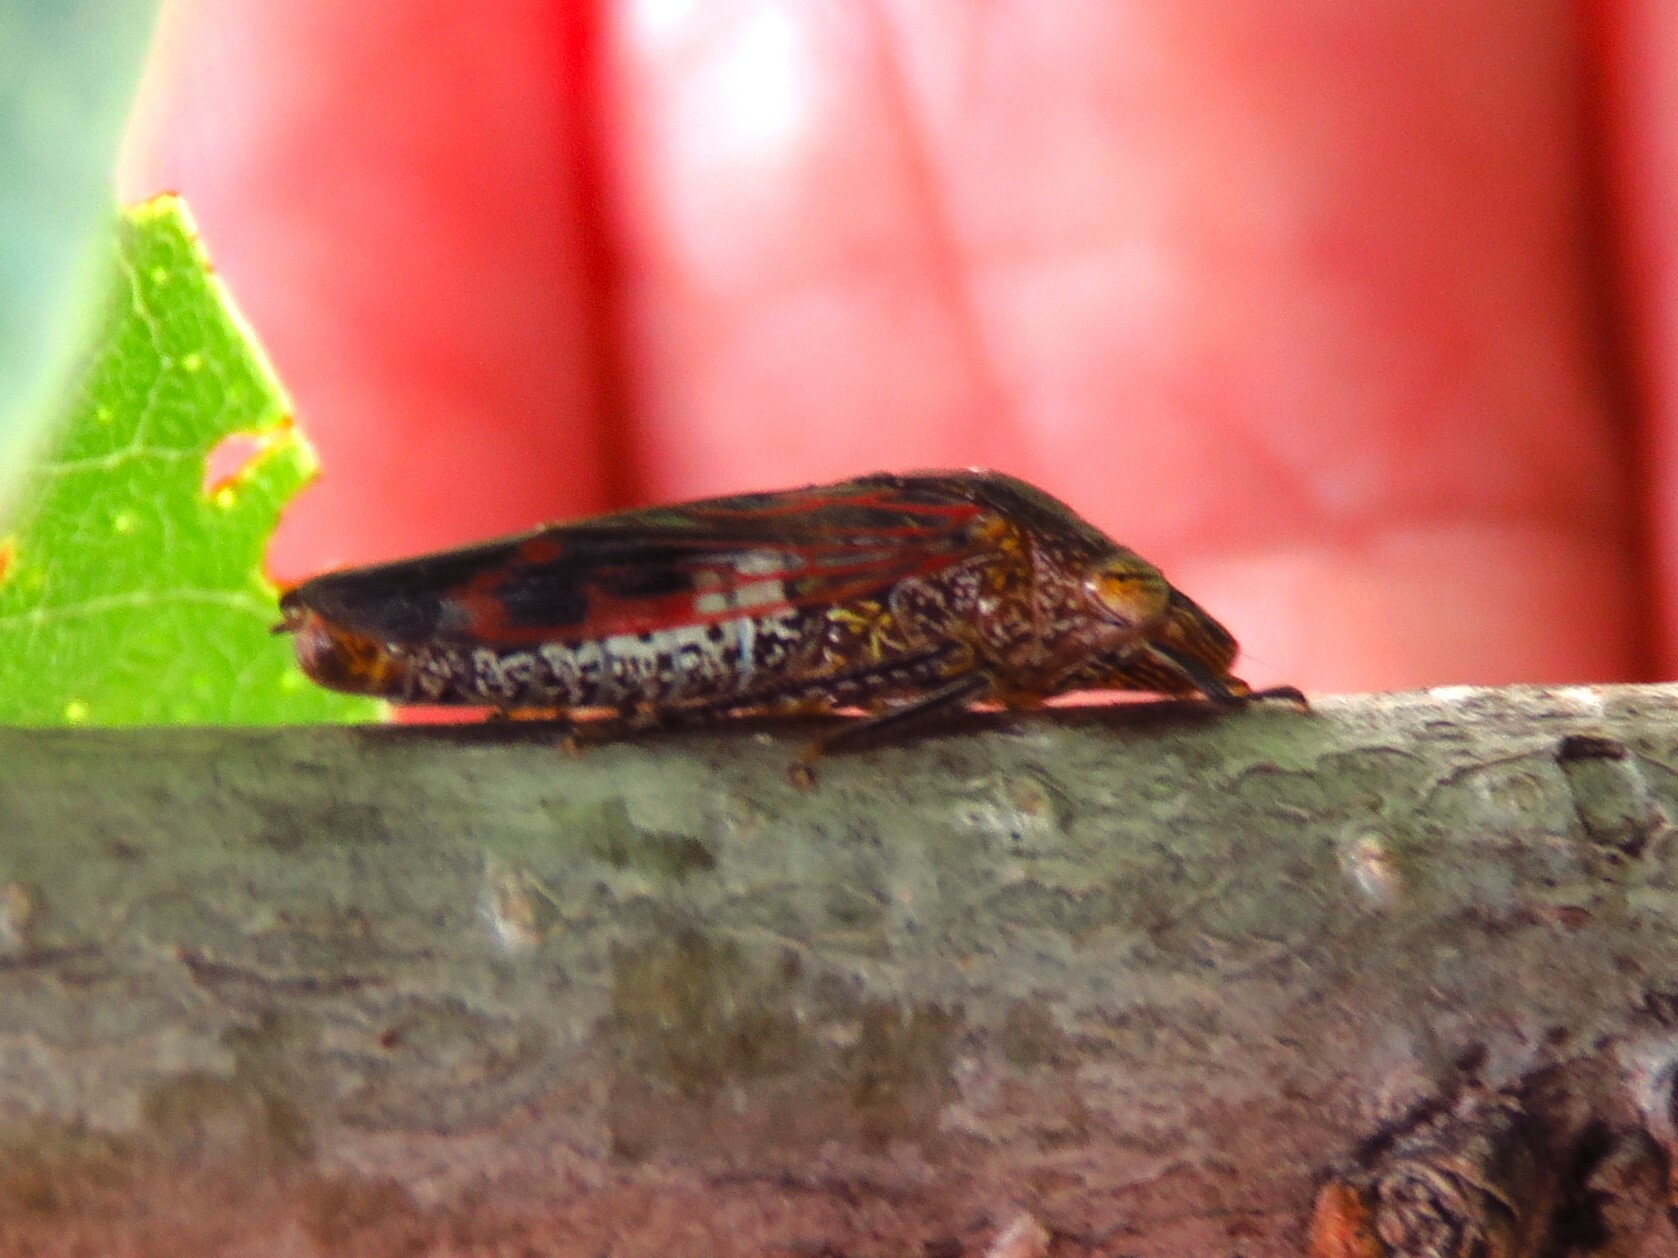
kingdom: Animalia
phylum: Arthropoda
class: Insecta
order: Hemiptera
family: Cicadellidae
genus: Homalodisca
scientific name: Homalodisca vitripennis
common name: Glassy-winged sharpshooter
